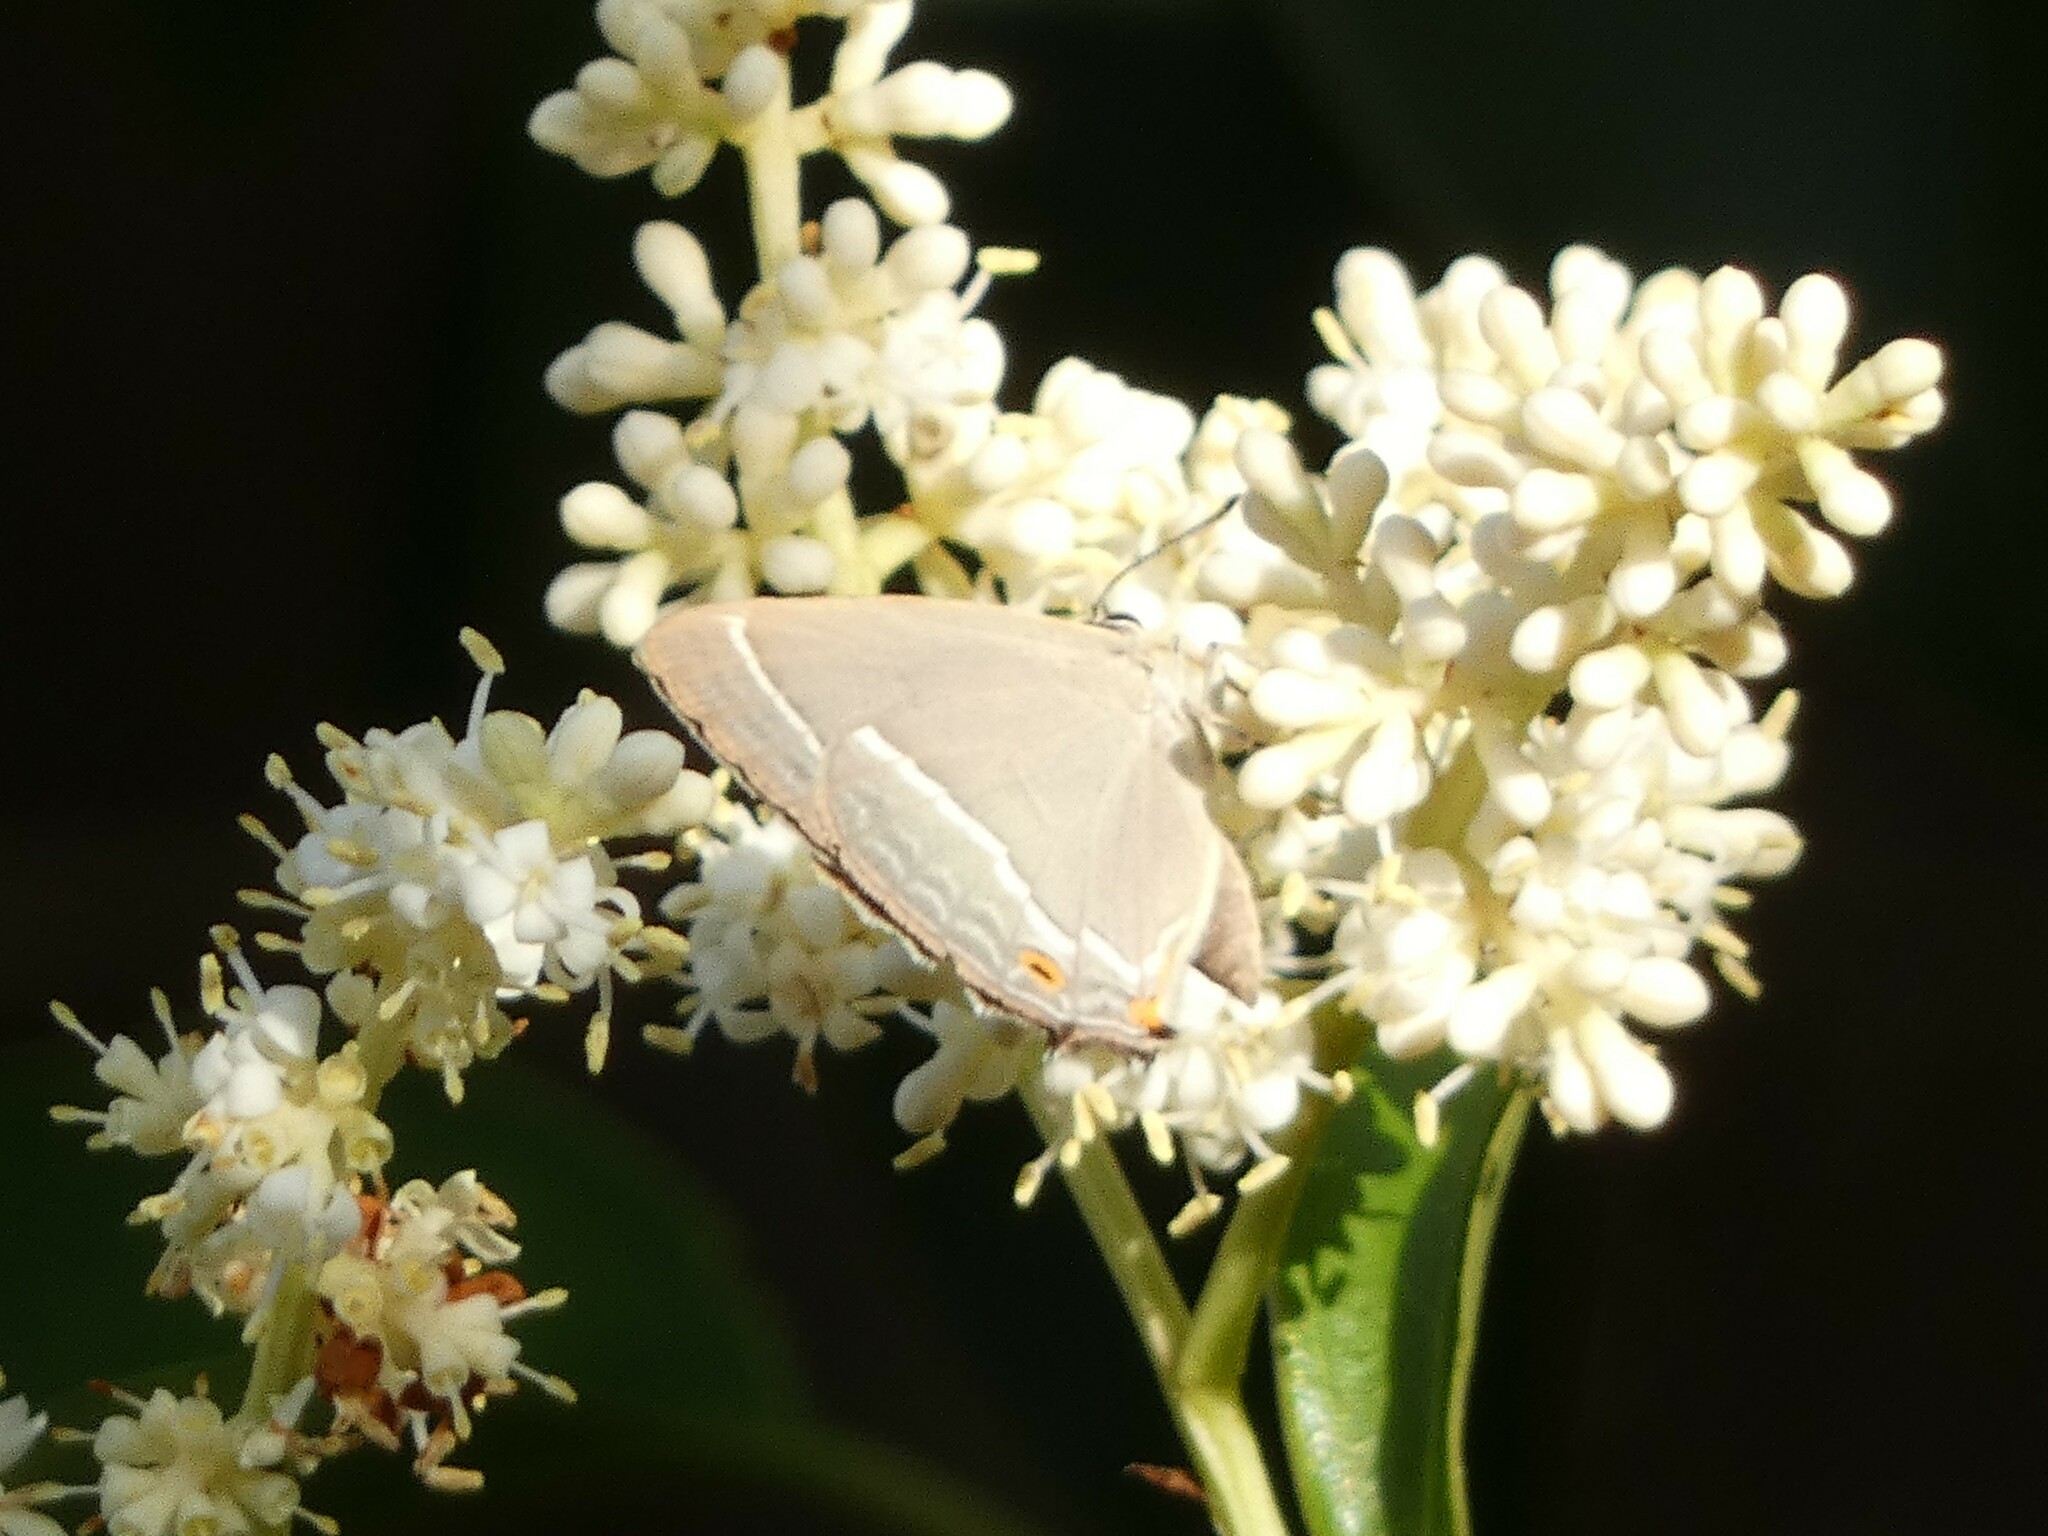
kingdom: Animalia
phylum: Arthropoda
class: Insecta
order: Lepidoptera
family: Lycaenidae
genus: Quercusia
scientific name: Quercusia quercus
